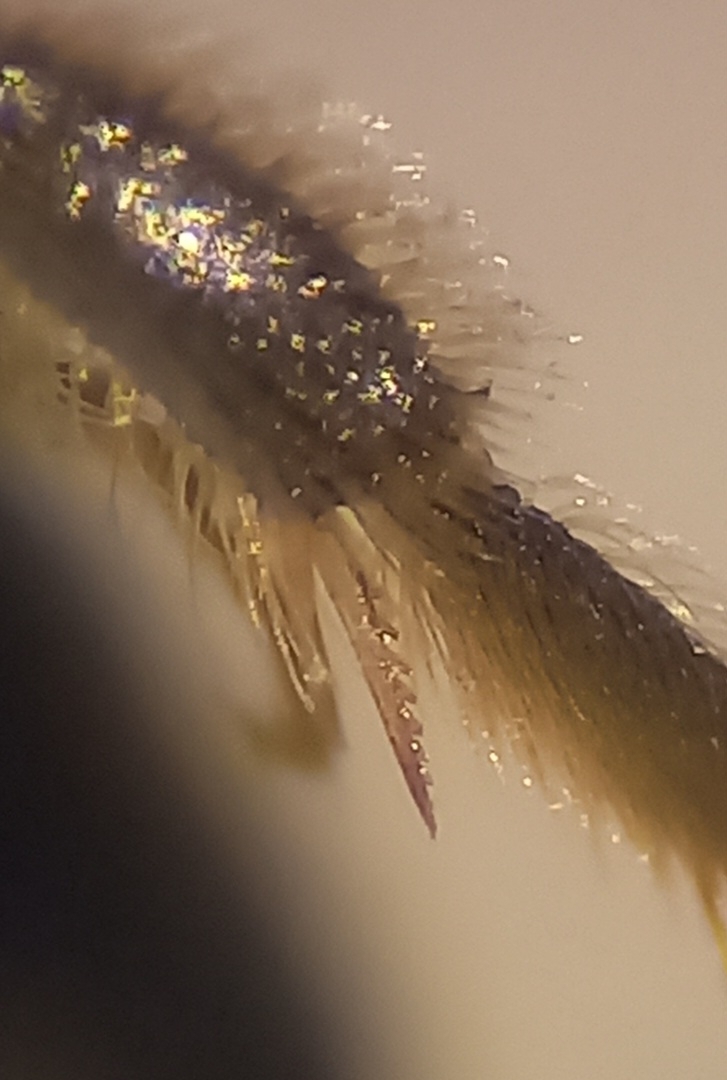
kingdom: Animalia
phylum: Arthropoda
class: Insecta
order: Hymenoptera
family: Halictidae
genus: Lasioglossum
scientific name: Lasioglossum pygmaeum
